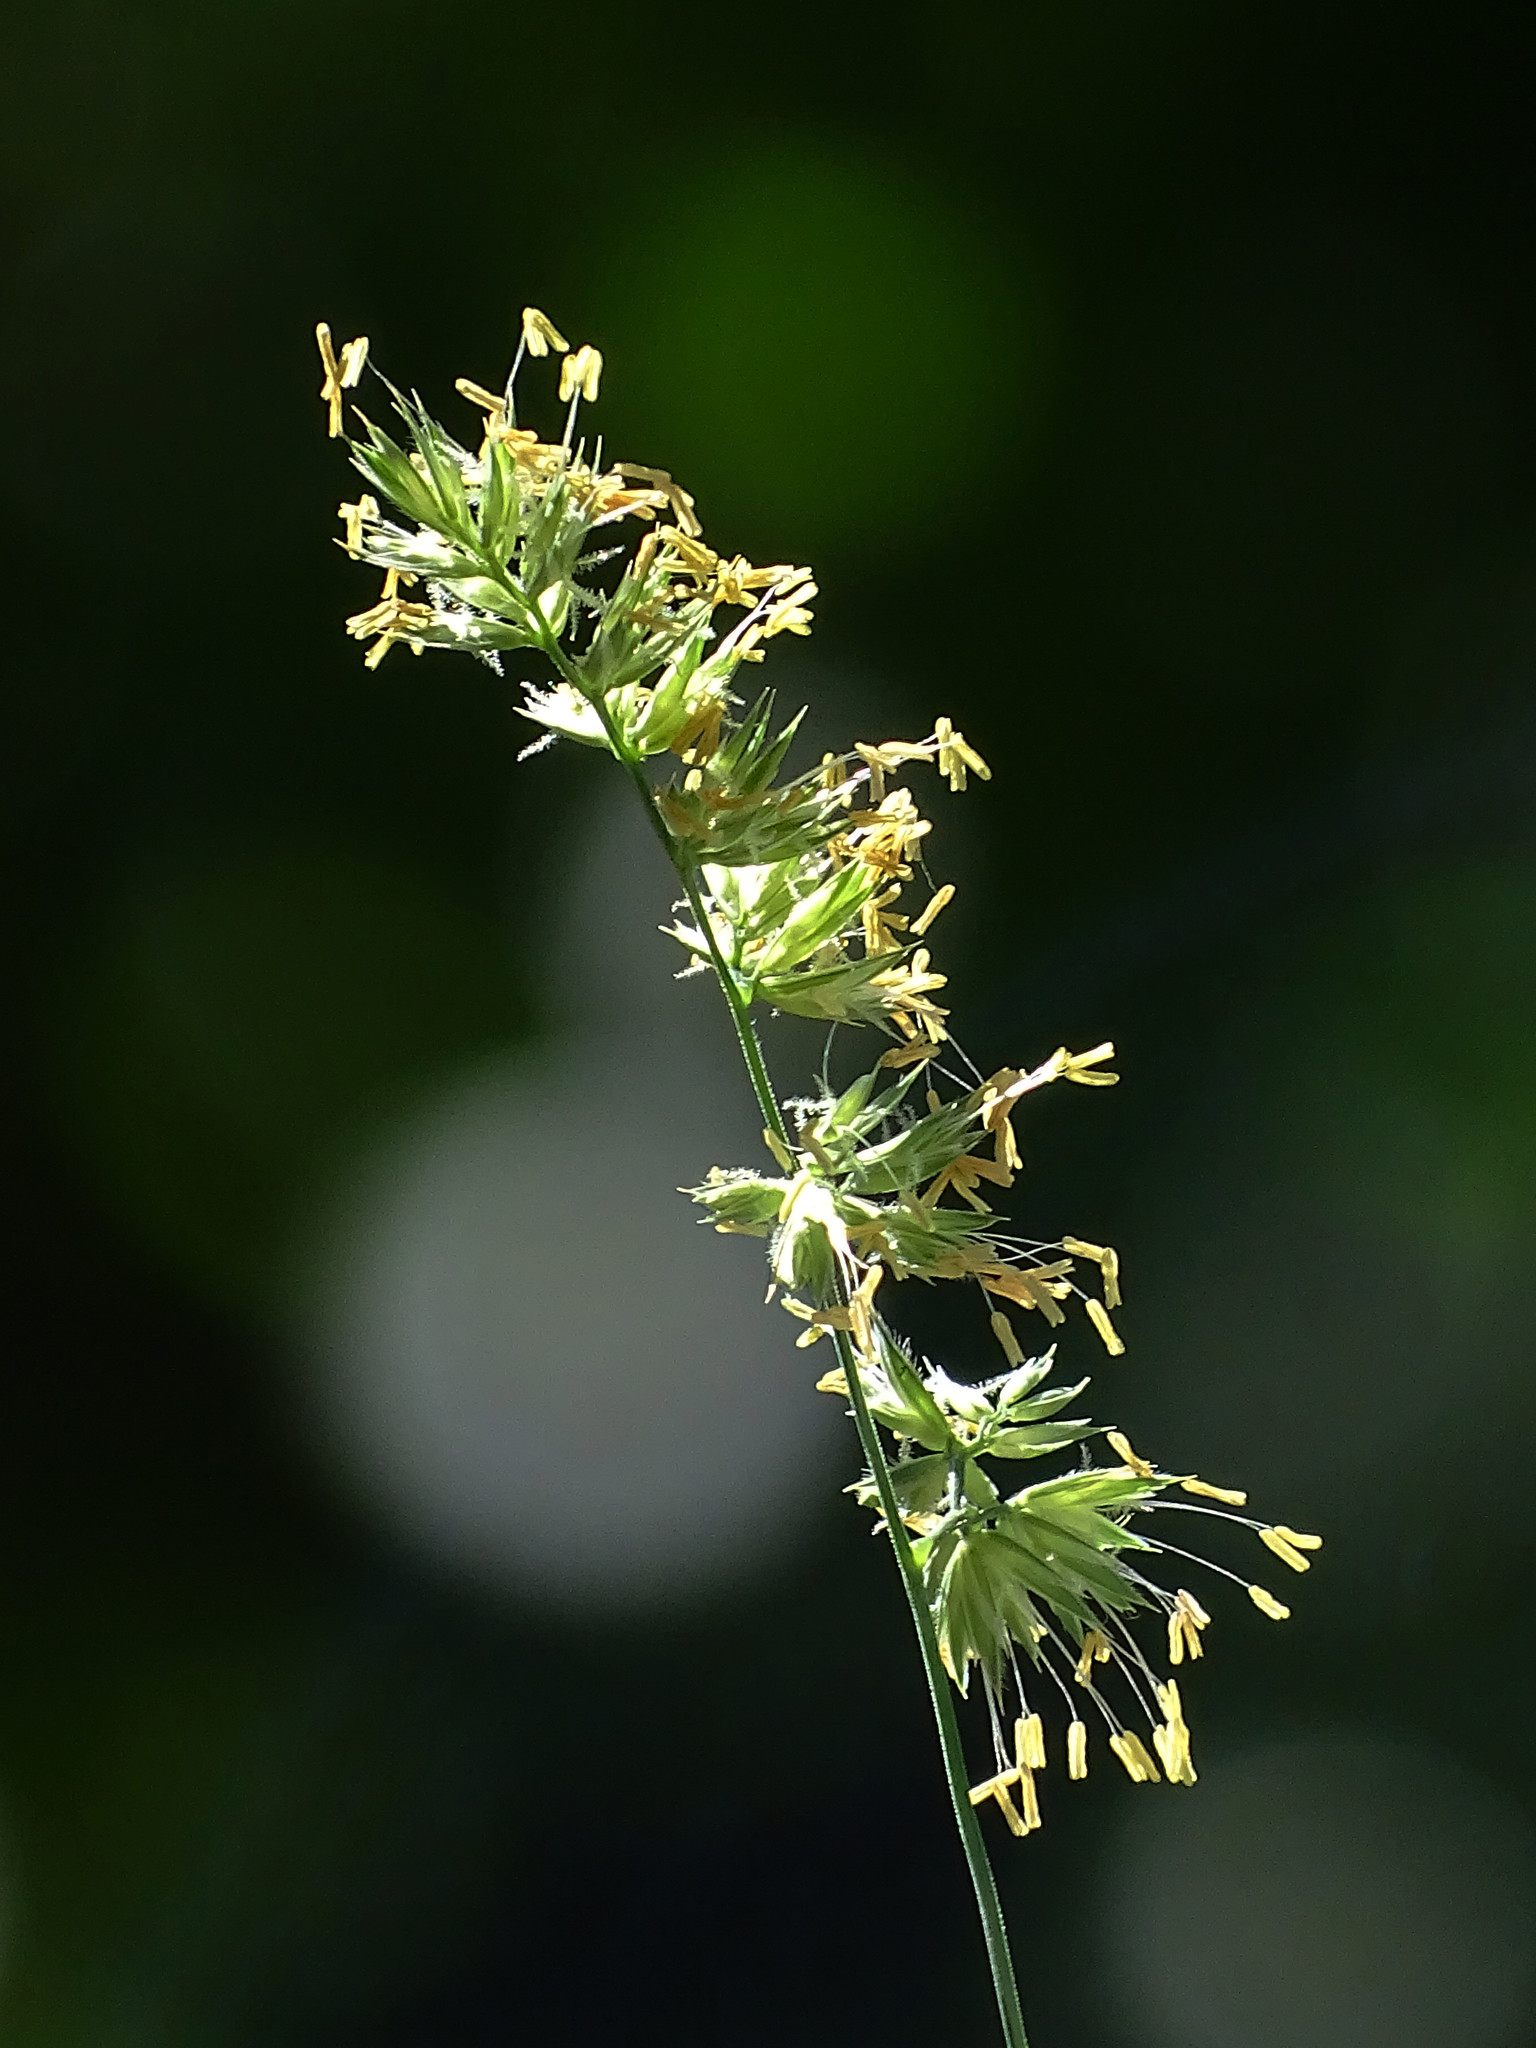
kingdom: Plantae
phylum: Tracheophyta
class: Liliopsida
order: Poales
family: Poaceae
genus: Dactylis
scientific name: Dactylis glomerata
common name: Orchardgrass
